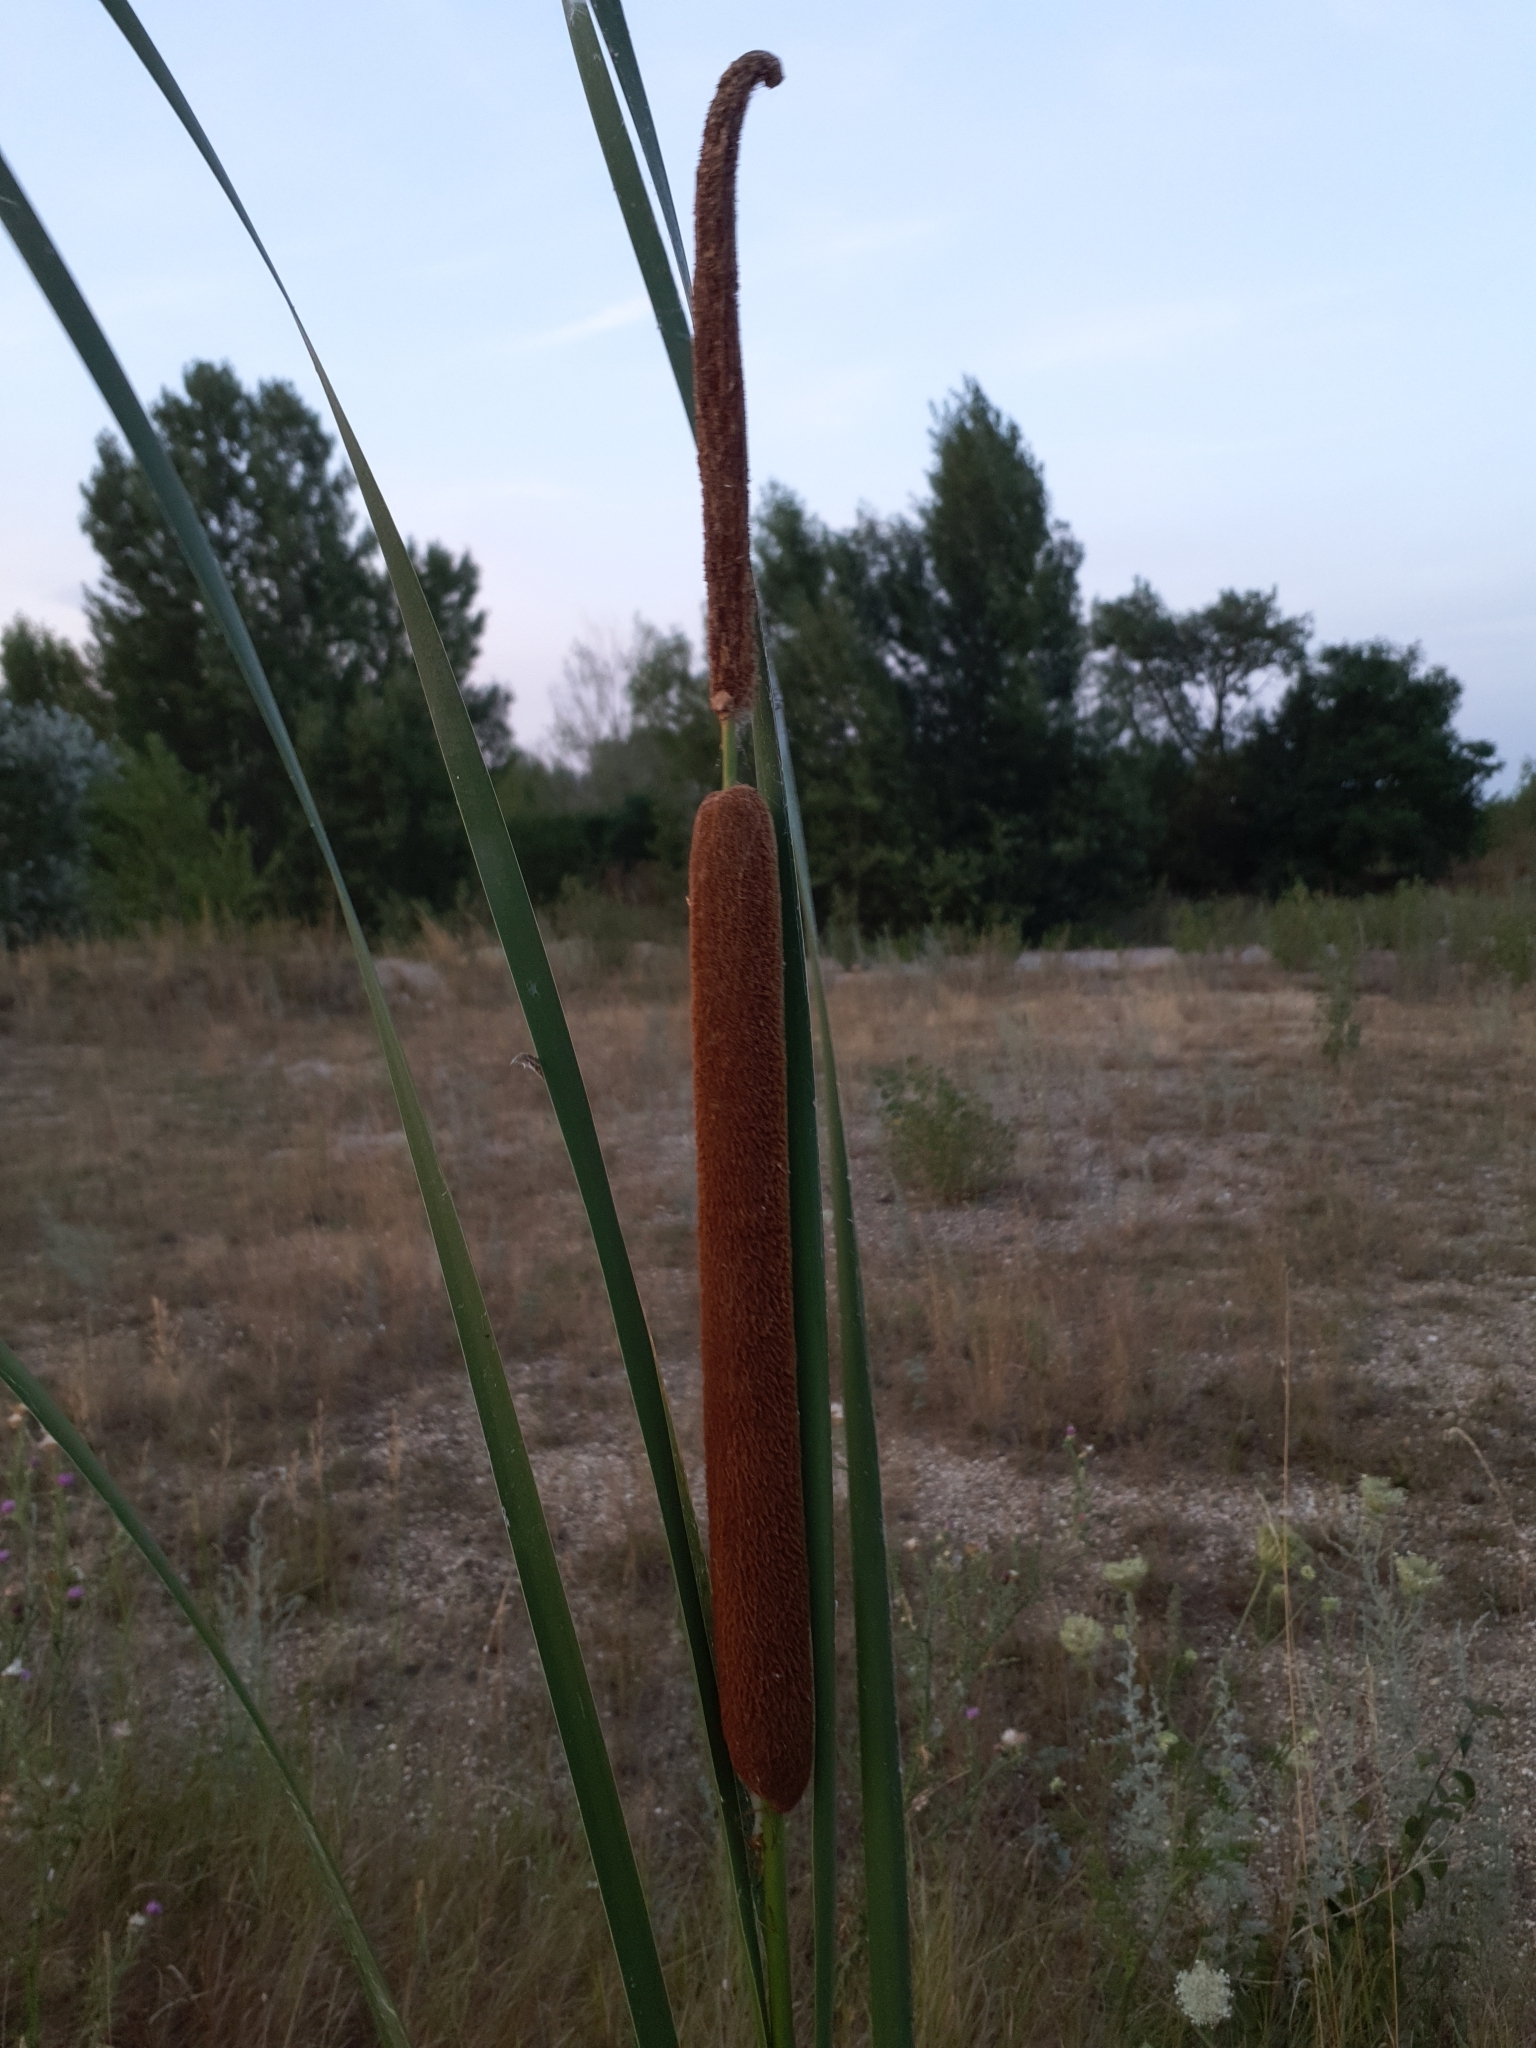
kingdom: Plantae
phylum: Tracheophyta
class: Liliopsida
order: Poales
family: Typhaceae
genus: Typha
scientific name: Typha angustifolia
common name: Lesser bulrush
